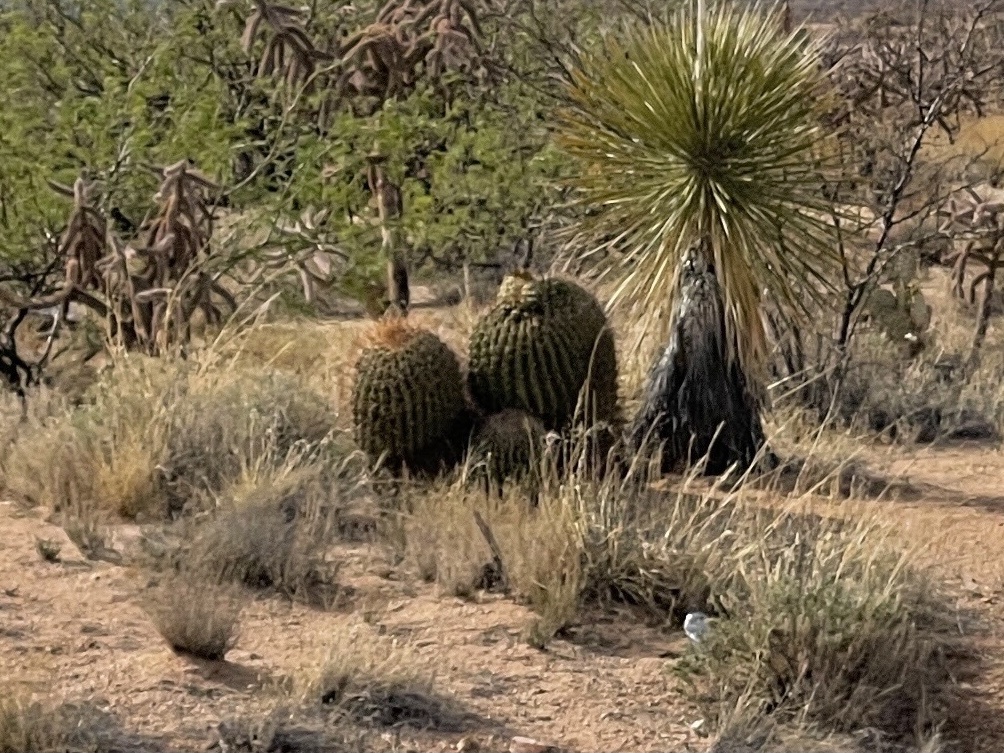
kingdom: Plantae
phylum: Tracheophyta
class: Magnoliopsida
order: Caryophyllales
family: Cactaceae
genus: Ferocactus
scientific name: Ferocactus wislizeni
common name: Candy barrel cactus
